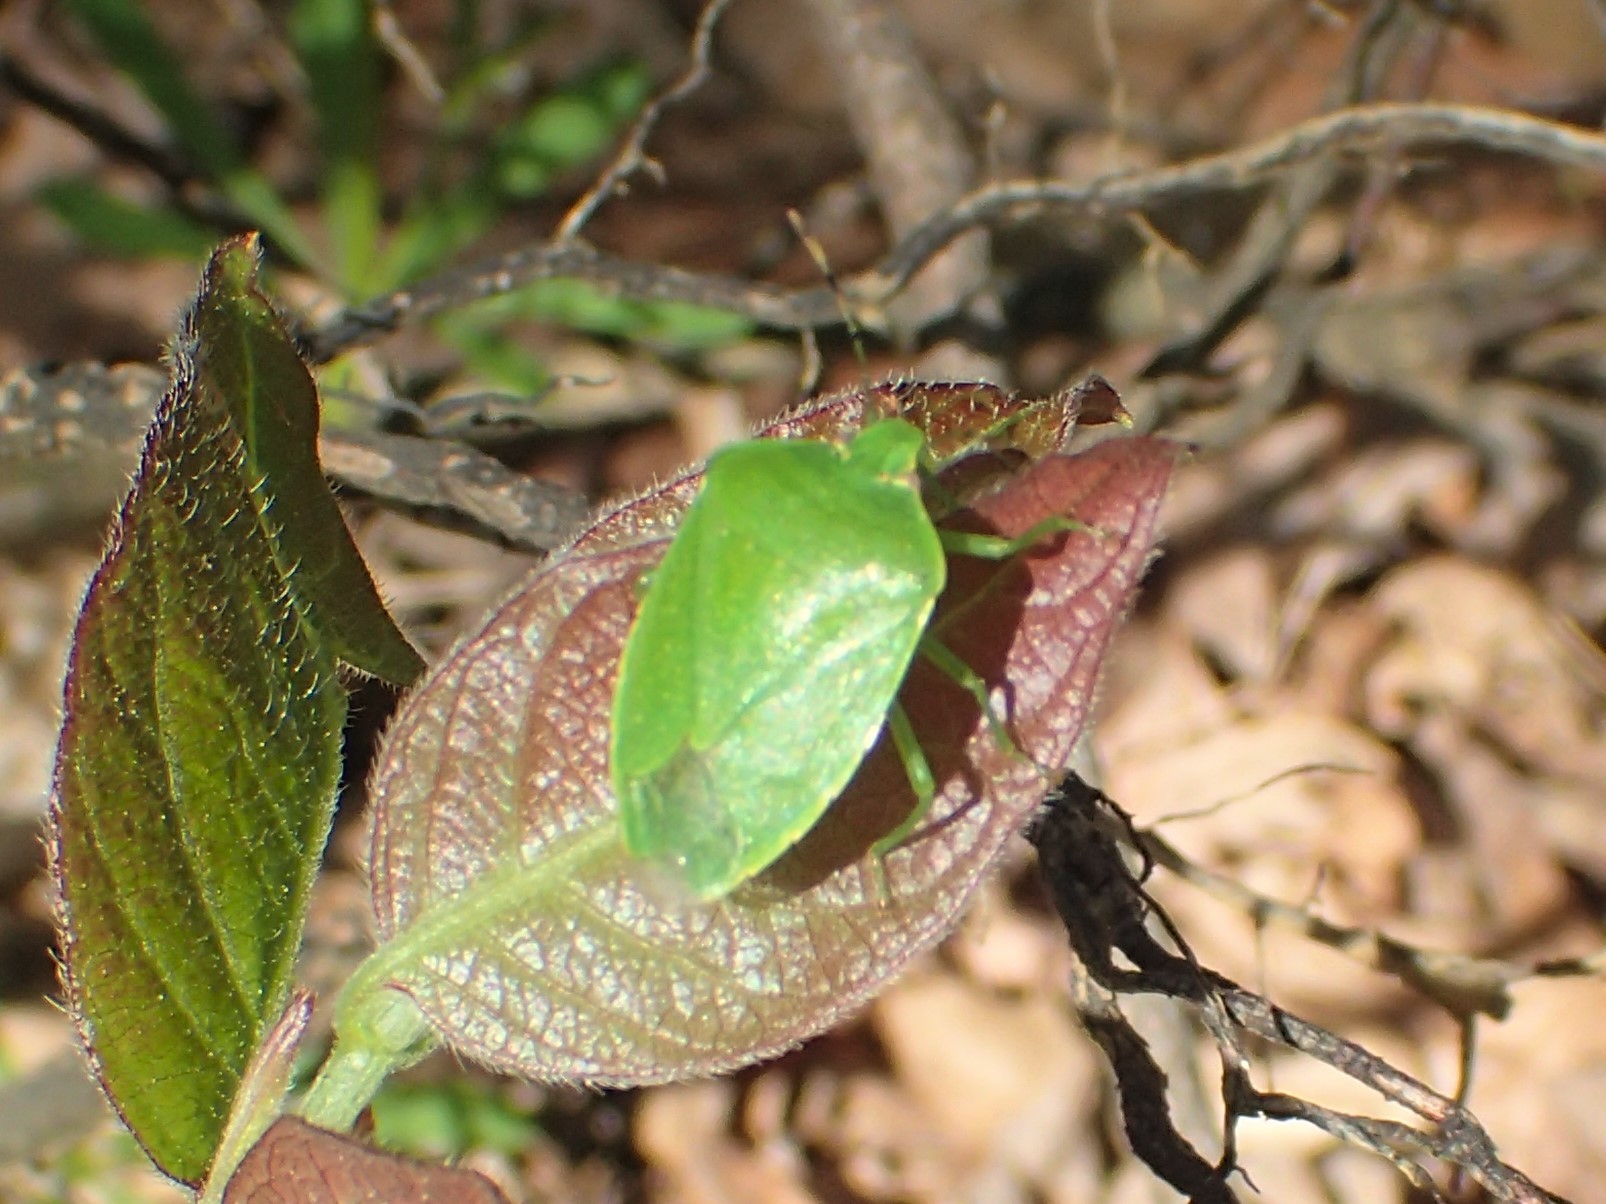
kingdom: Animalia
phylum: Arthropoda
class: Insecta
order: Hemiptera
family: Pentatomidae
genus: Chinavia
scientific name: Chinavia hilaris
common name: Green stink bug
